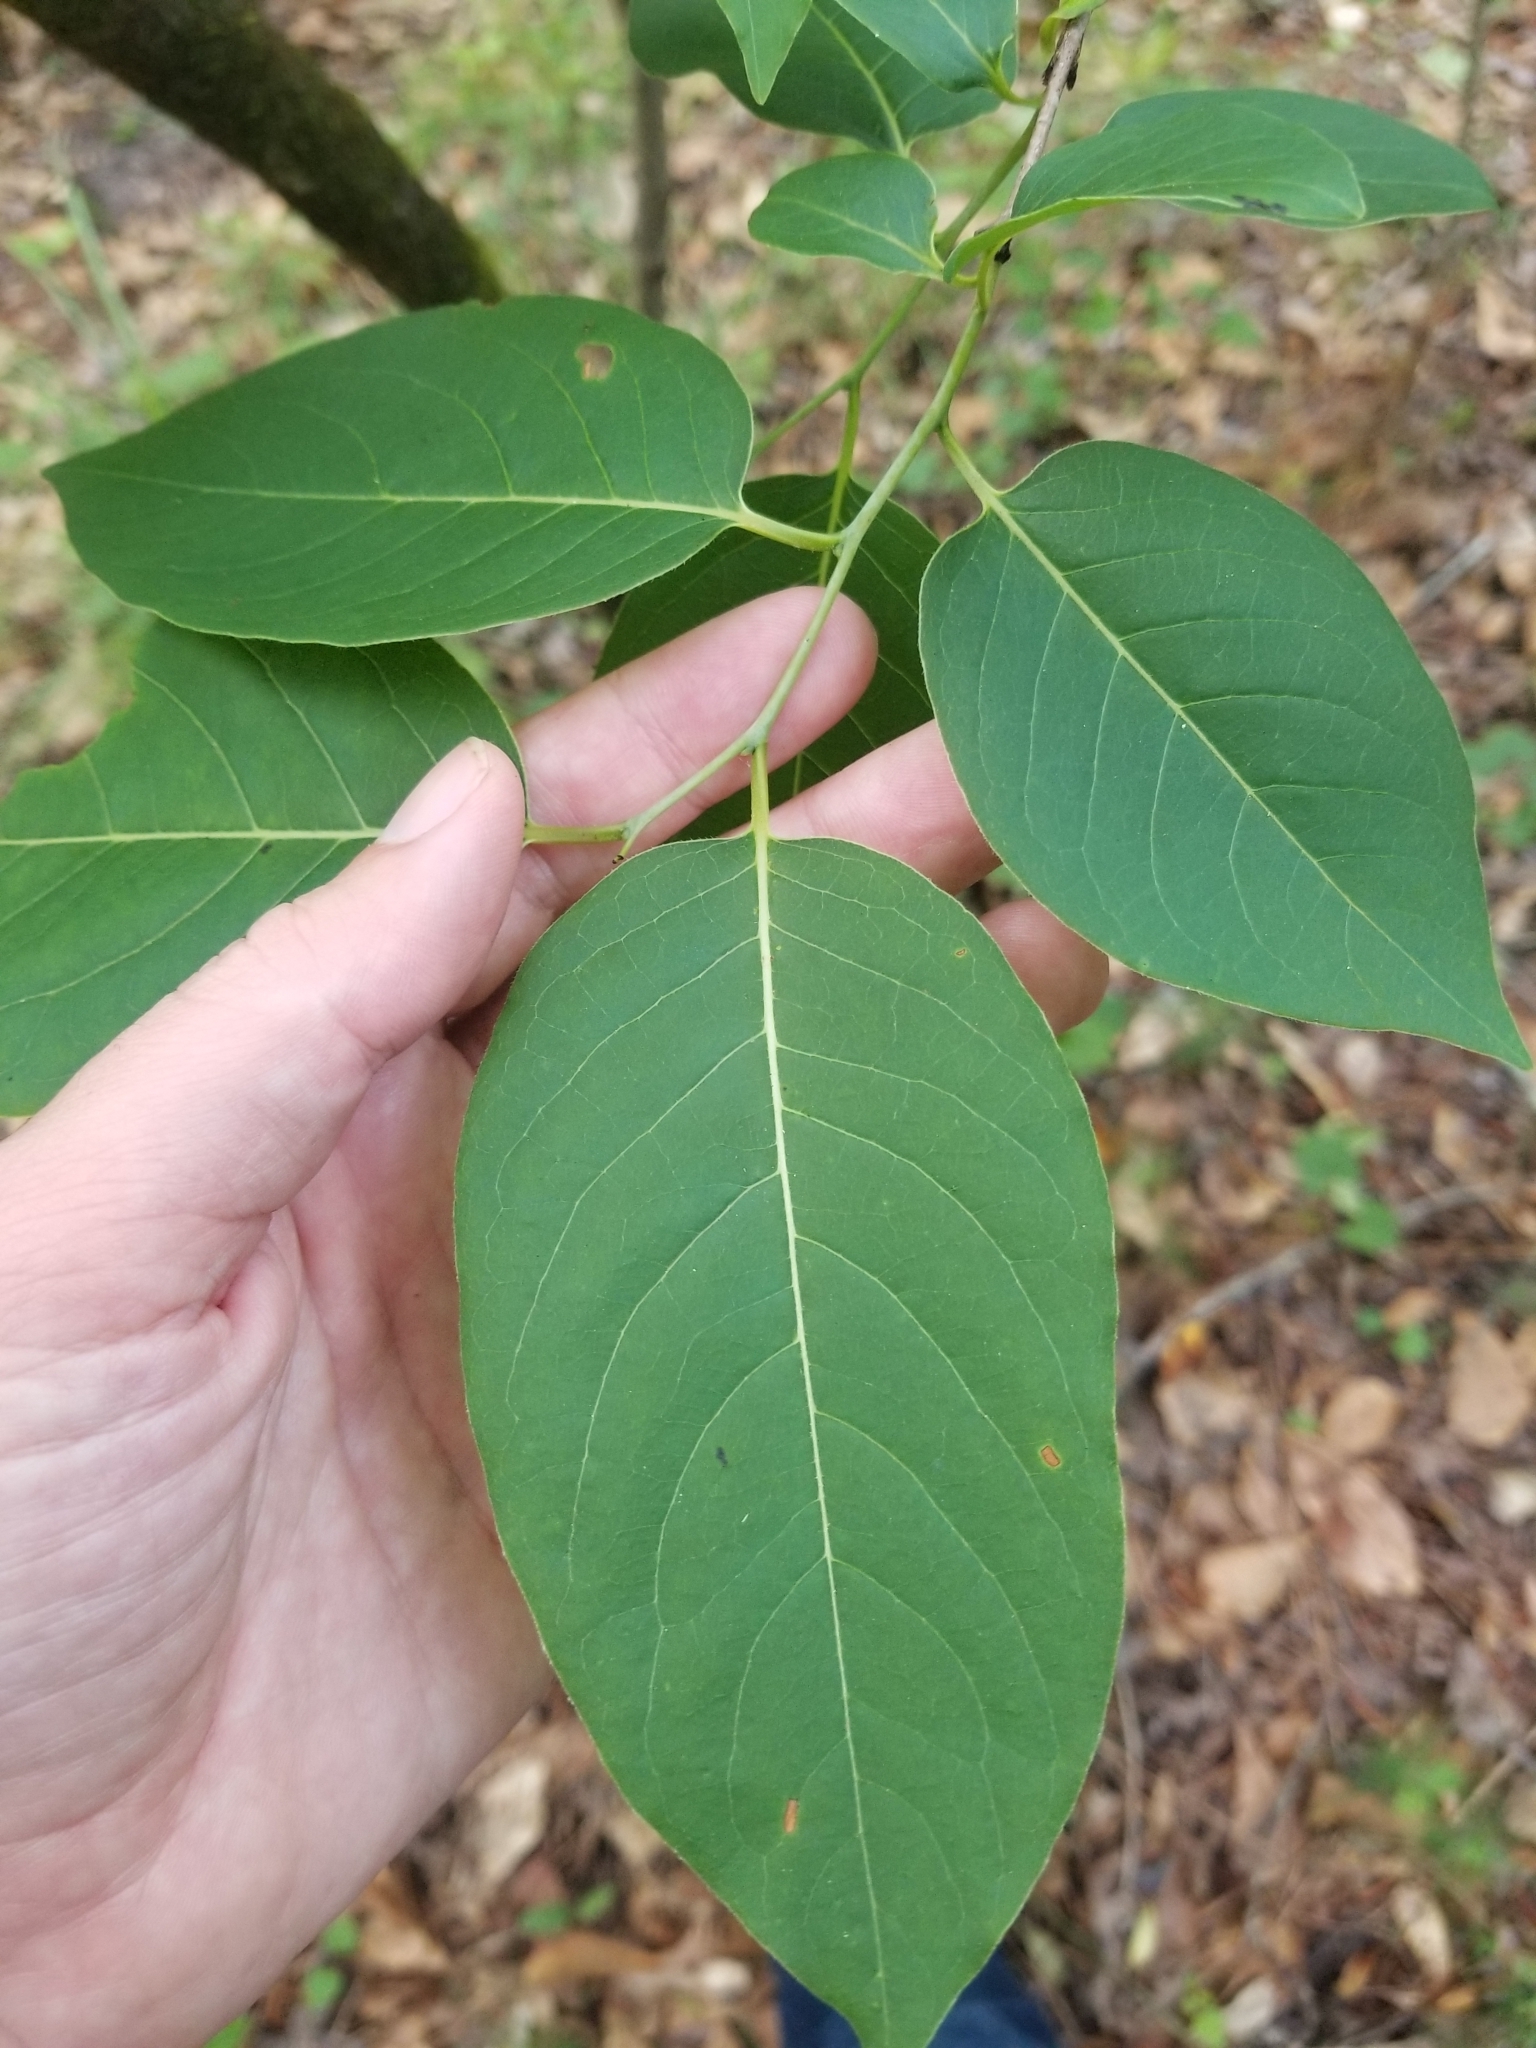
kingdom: Plantae
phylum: Tracheophyta
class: Magnoliopsida
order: Ericales
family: Ebenaceae
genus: Diospyros
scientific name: Diospyros virginiana
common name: Persimmon
